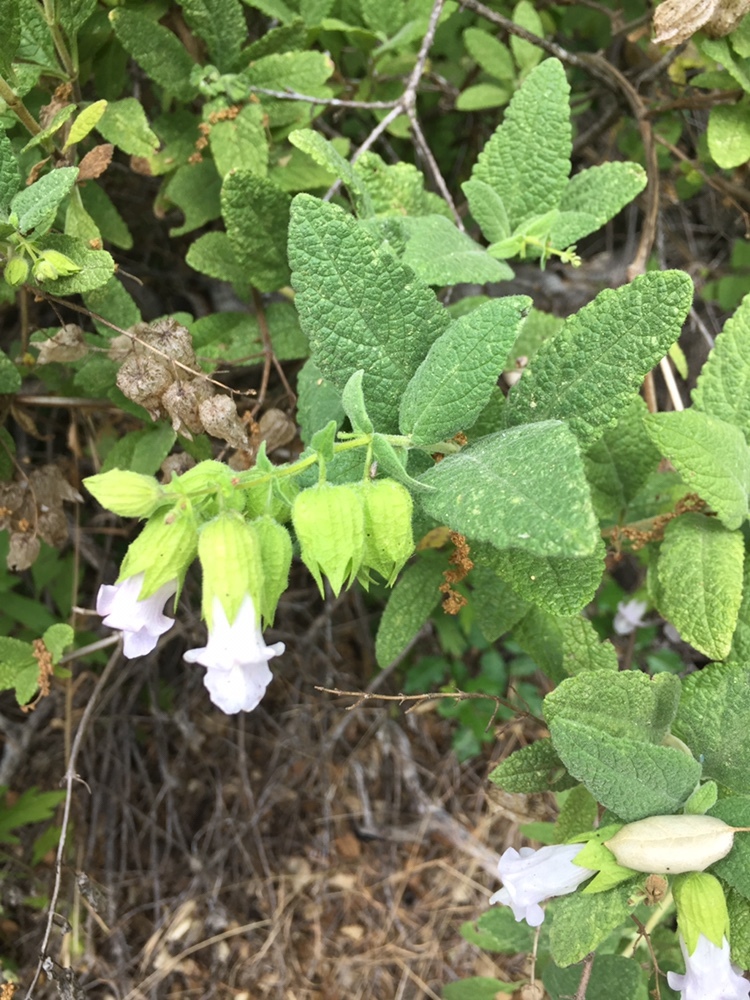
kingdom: Plantae
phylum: Tracheophyta
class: Magnoliopsida
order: Lamiales
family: Lamiaceae
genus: Lepechinia
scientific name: Lepechinia calycina
